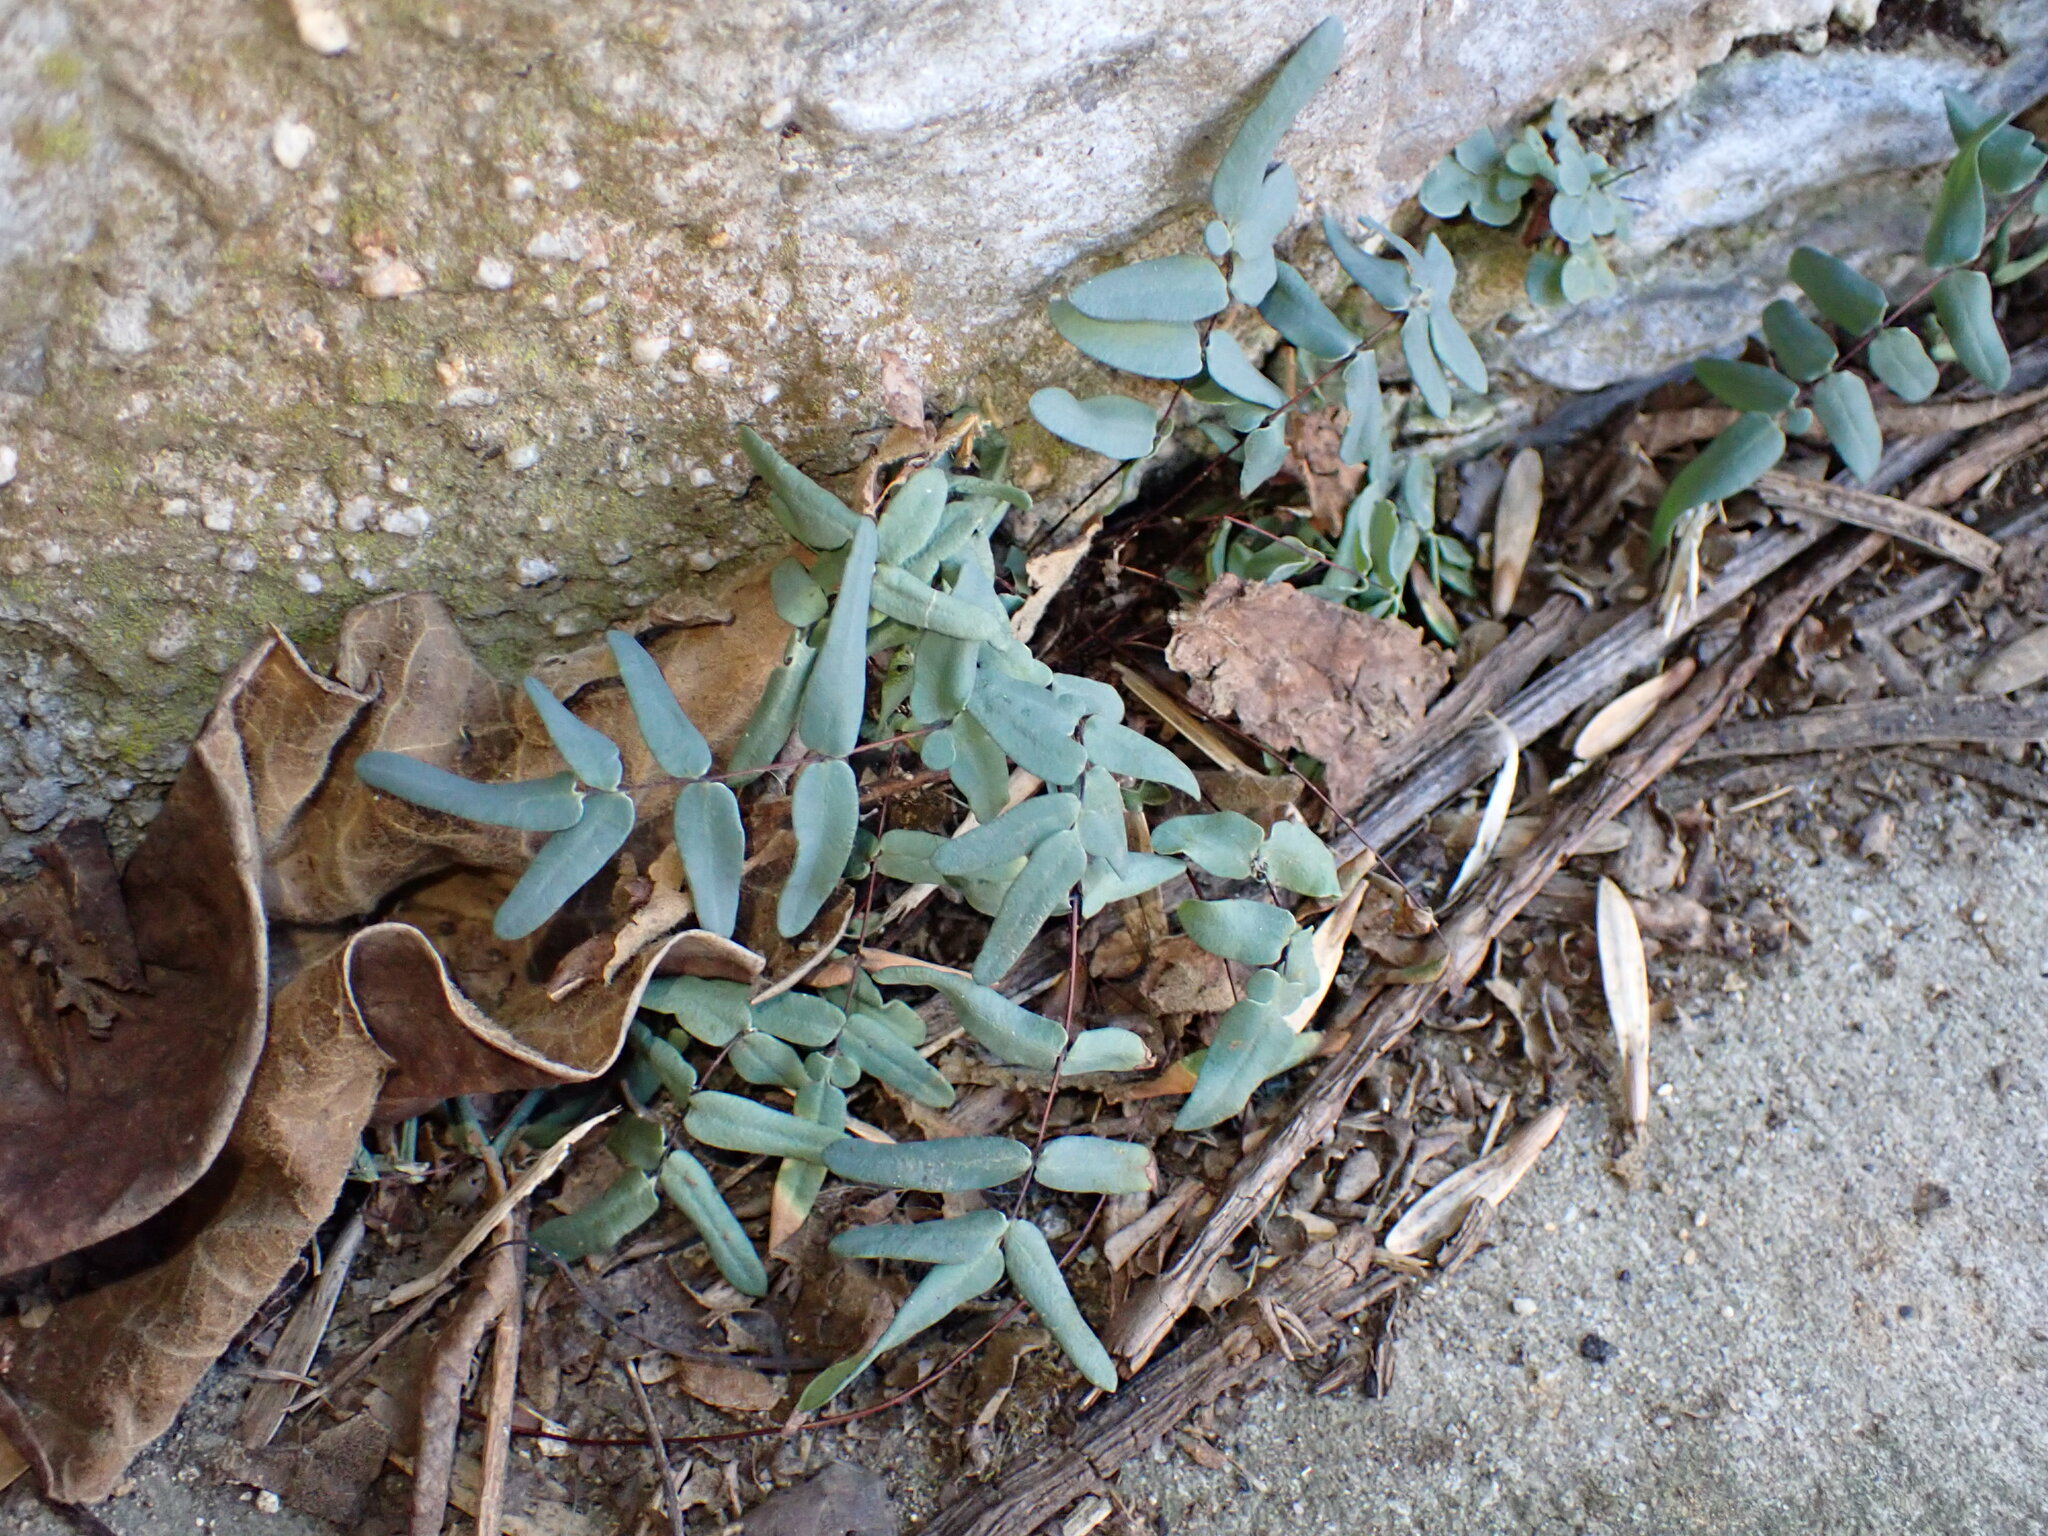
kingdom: Plantae
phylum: Tracheophyta
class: Polypodiopsida
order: Polypodiales
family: Pteridaceae
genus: Pellaea
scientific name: Pellaea glabella
